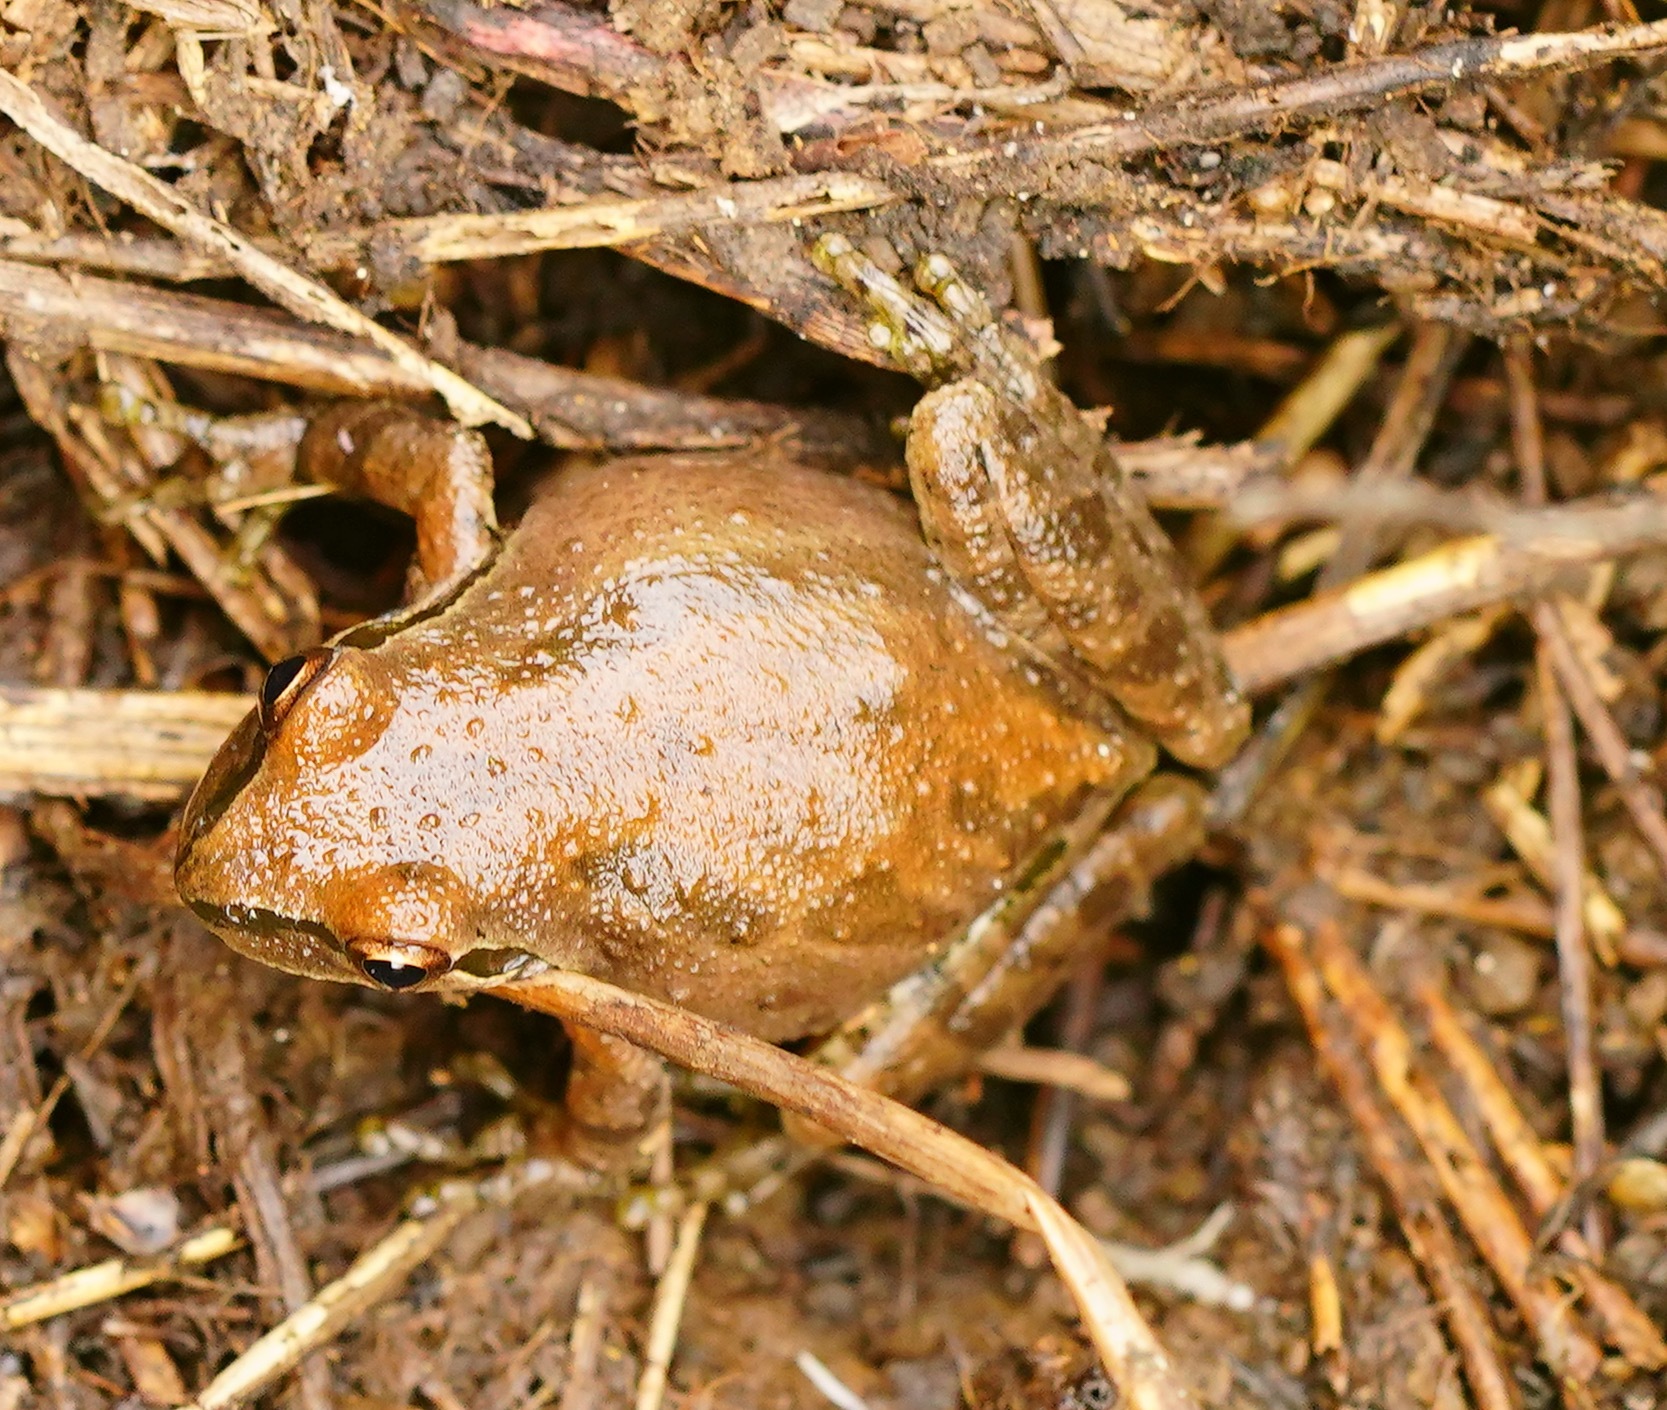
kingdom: Animalia
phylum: Chordata
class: Amphibia
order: Anura
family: Hylidae
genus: Pseudacris
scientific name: Pseudacris regilla
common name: Pacific chorus frog
